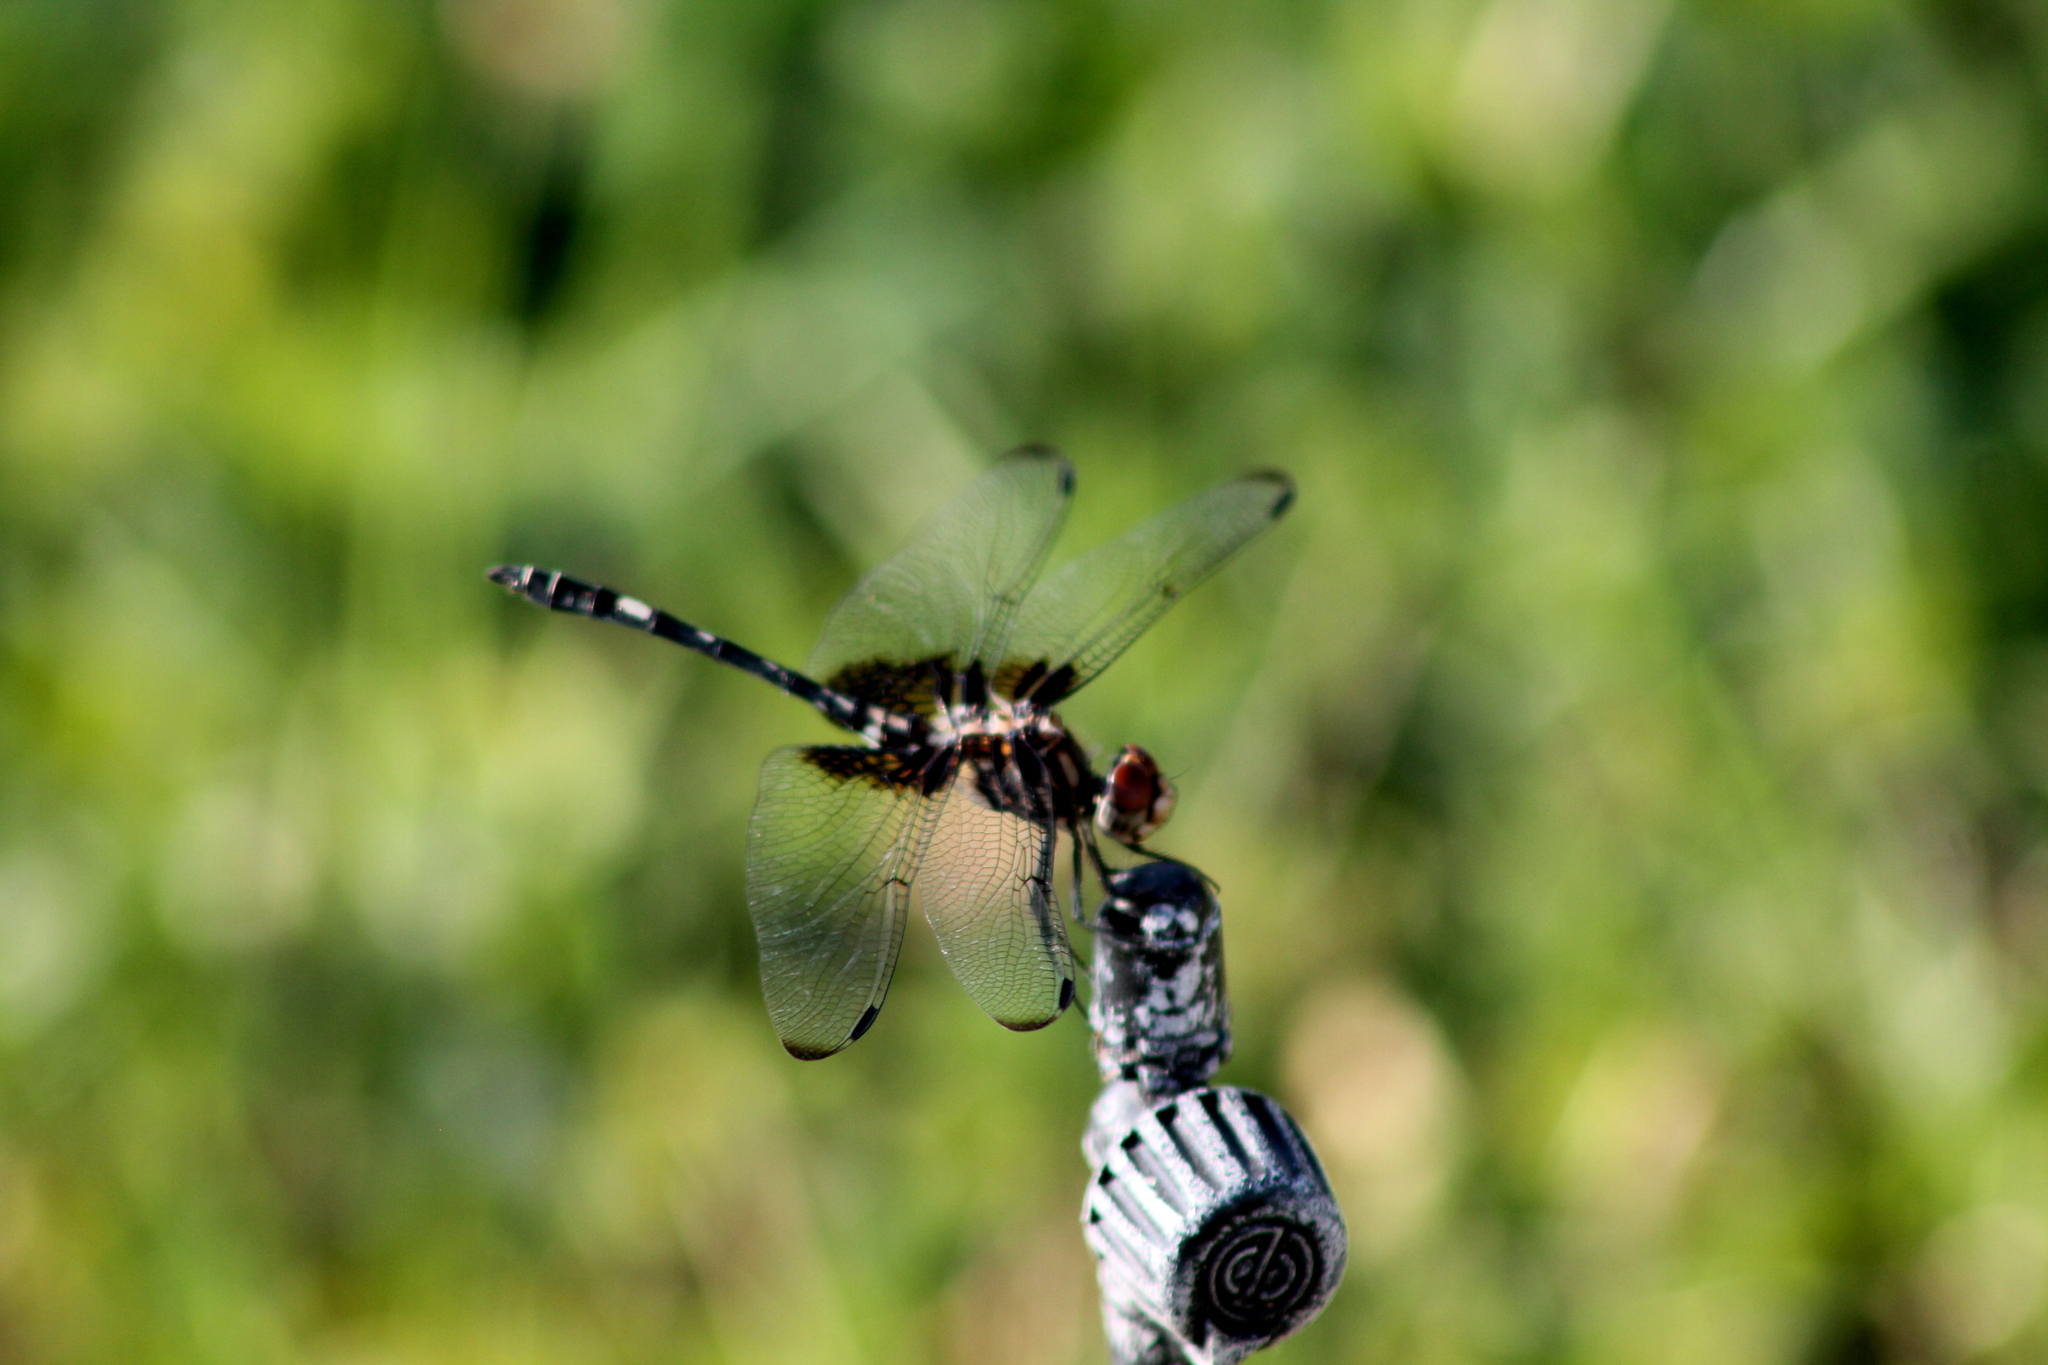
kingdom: Animalia
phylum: Arthropoda
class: Insecta
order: Odonata
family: Libellulidae
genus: Dythemis
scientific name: Dythemis fugax
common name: Checkered setwing
